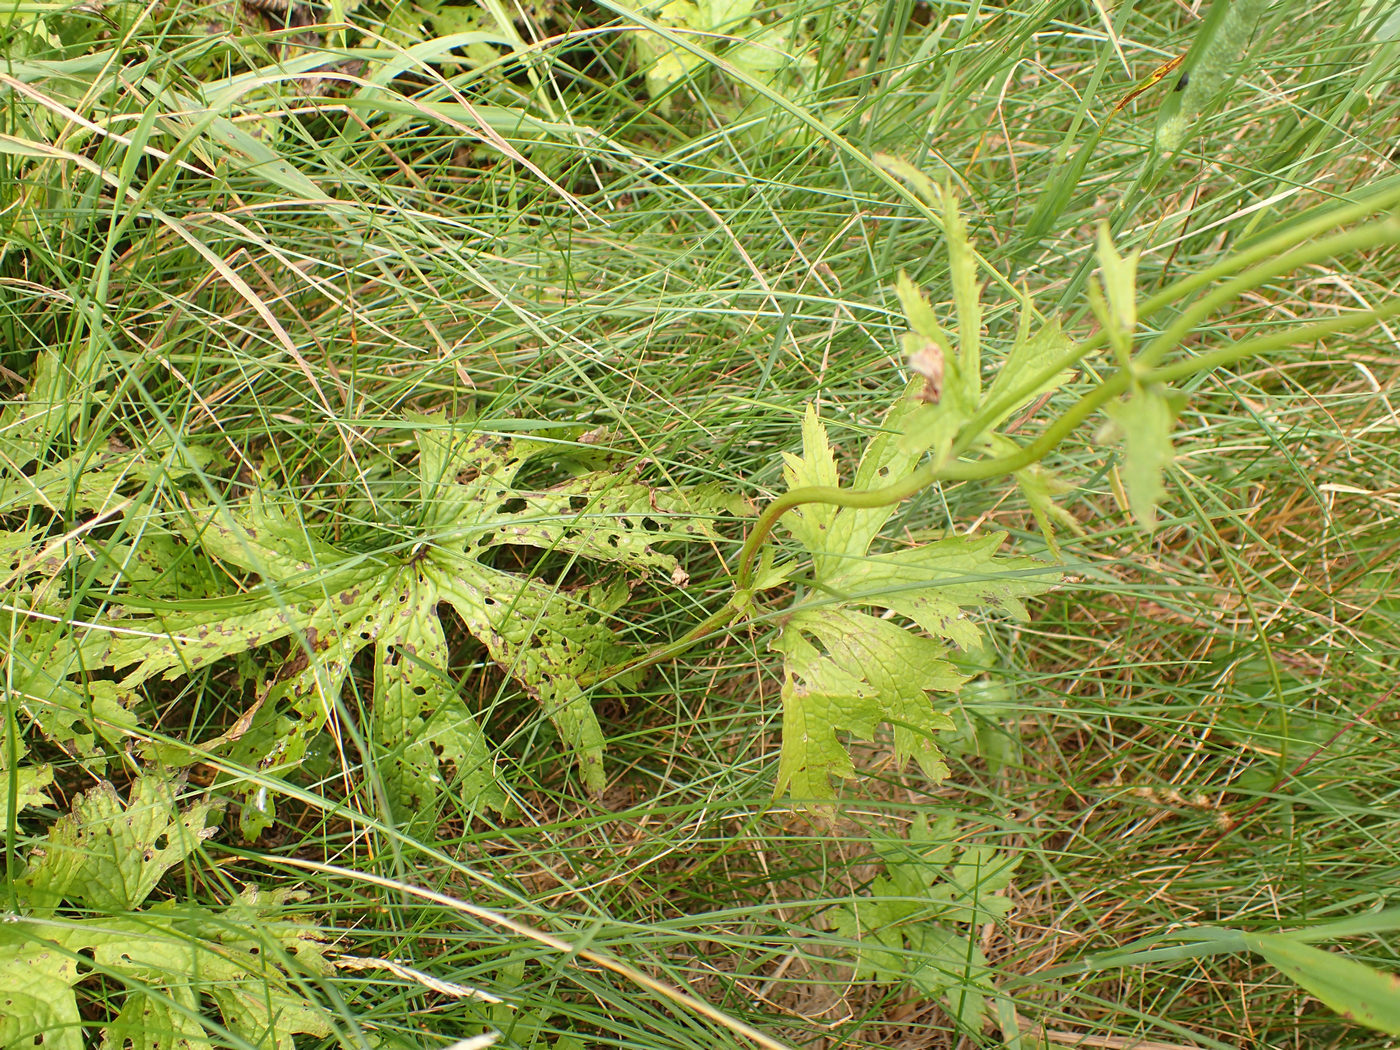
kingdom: Plantae
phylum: Tracheophyta
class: Magnoliopsida
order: Ranunculales
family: Ranunculaceae
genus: Trautvetteria
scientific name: Trautvetteria carolinensis
